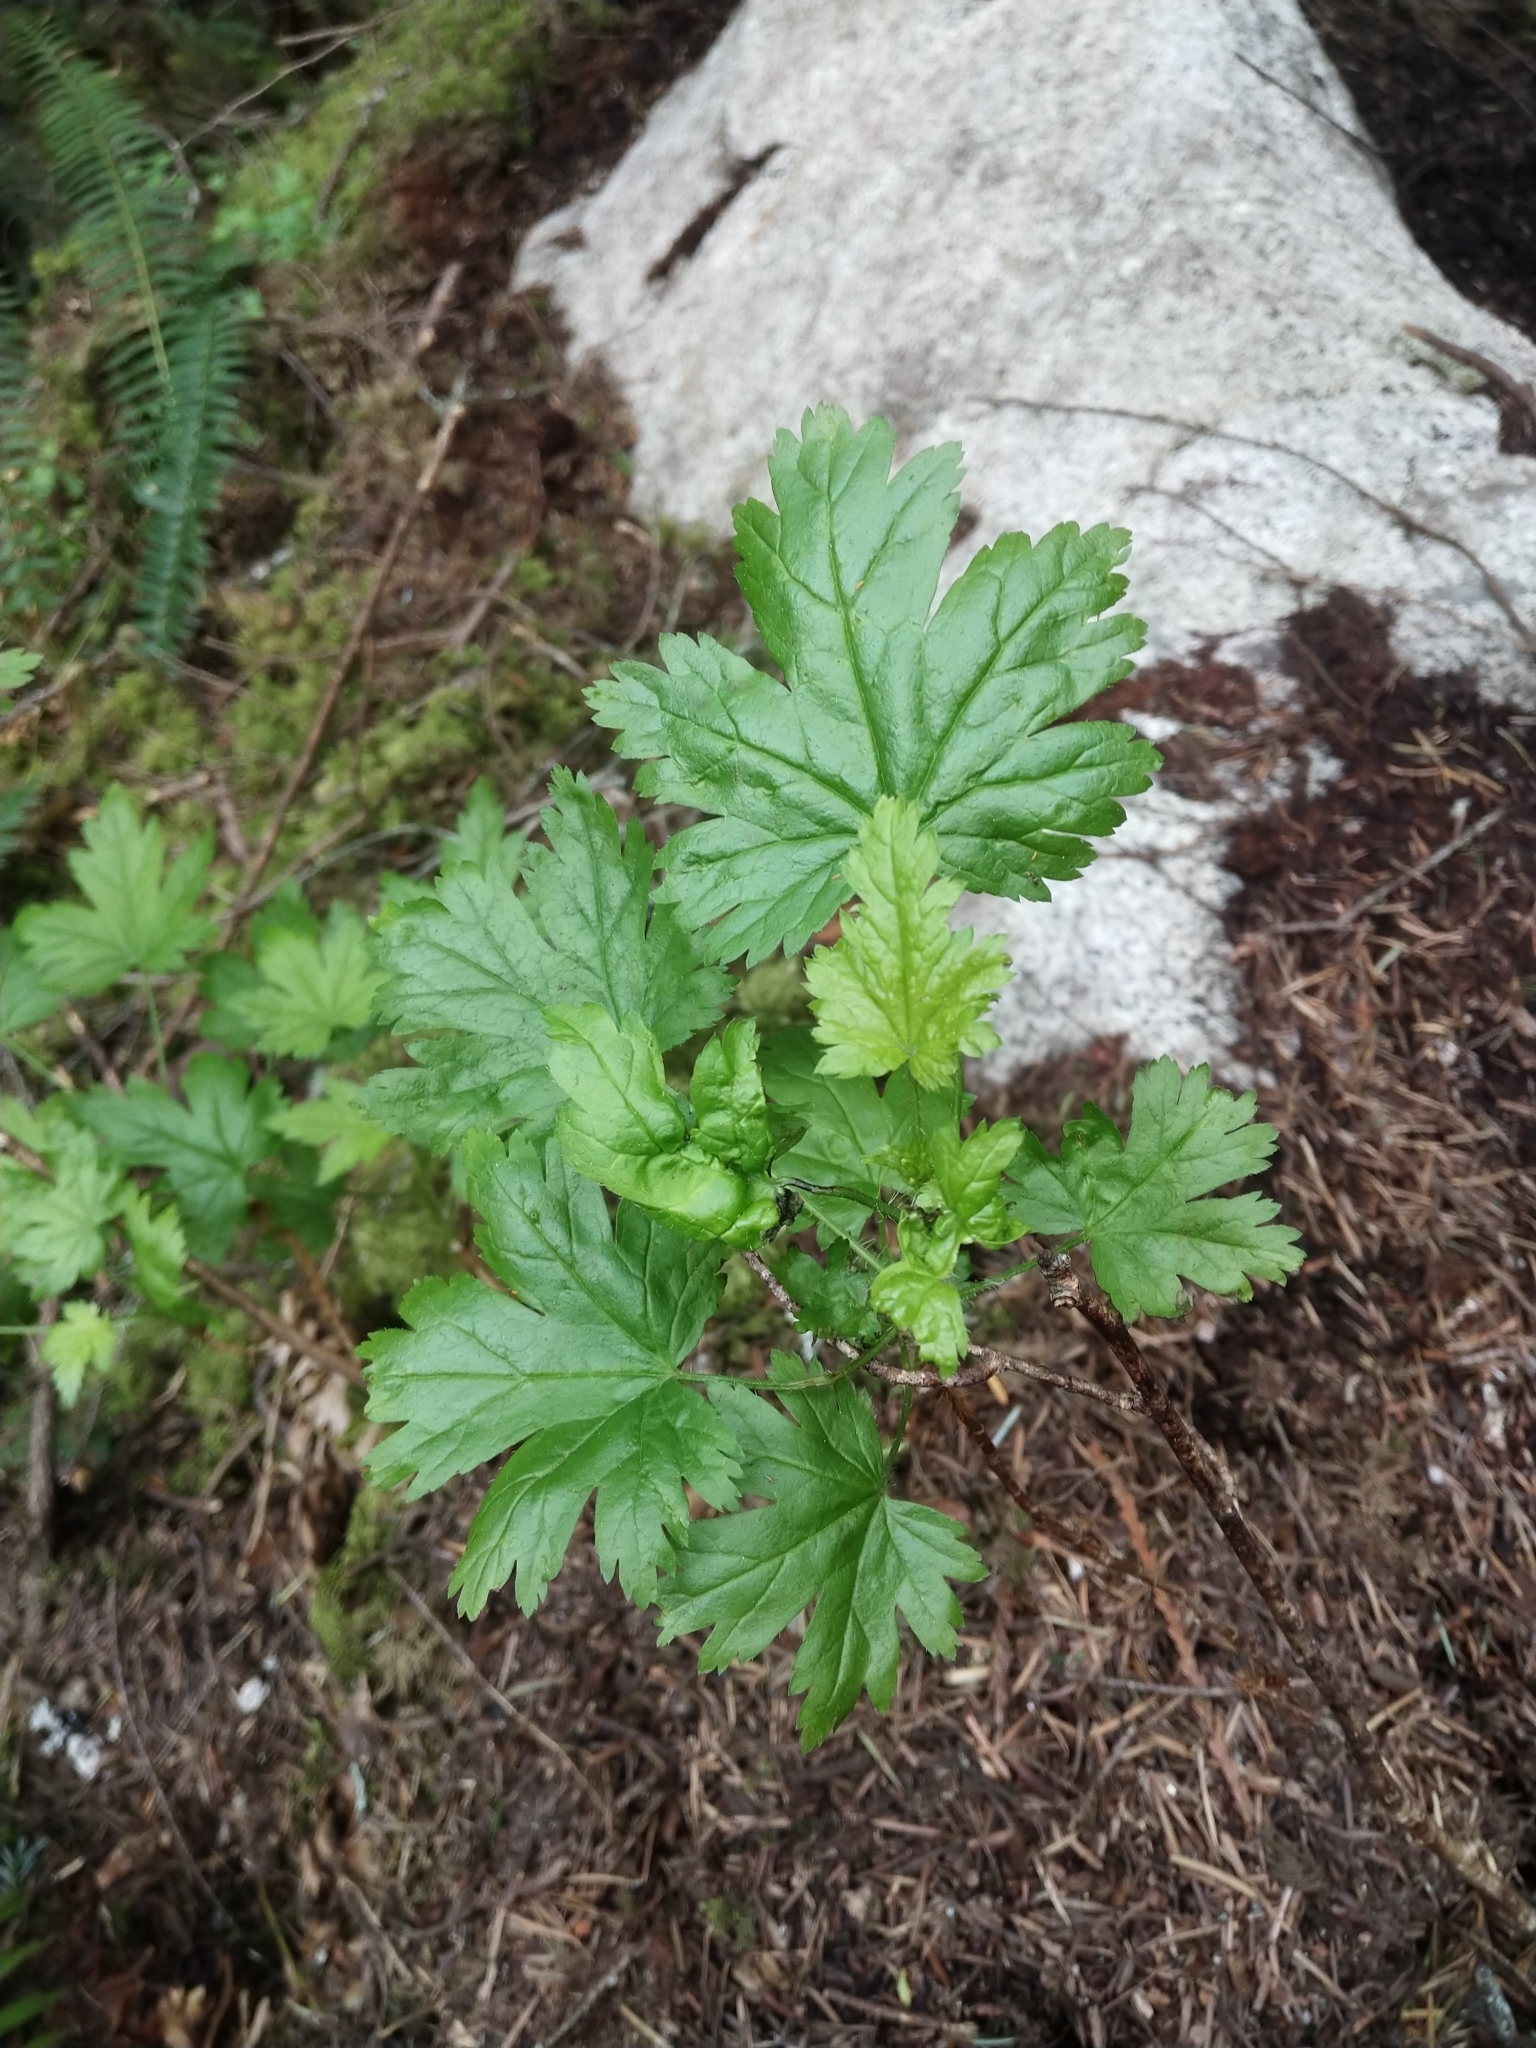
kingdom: Plantae
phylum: Tracheophyta
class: Magnoliopsida
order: Saxifragales
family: Grossulariaceae
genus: Ribes
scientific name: Ribes lacustre
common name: Black gooseberry
